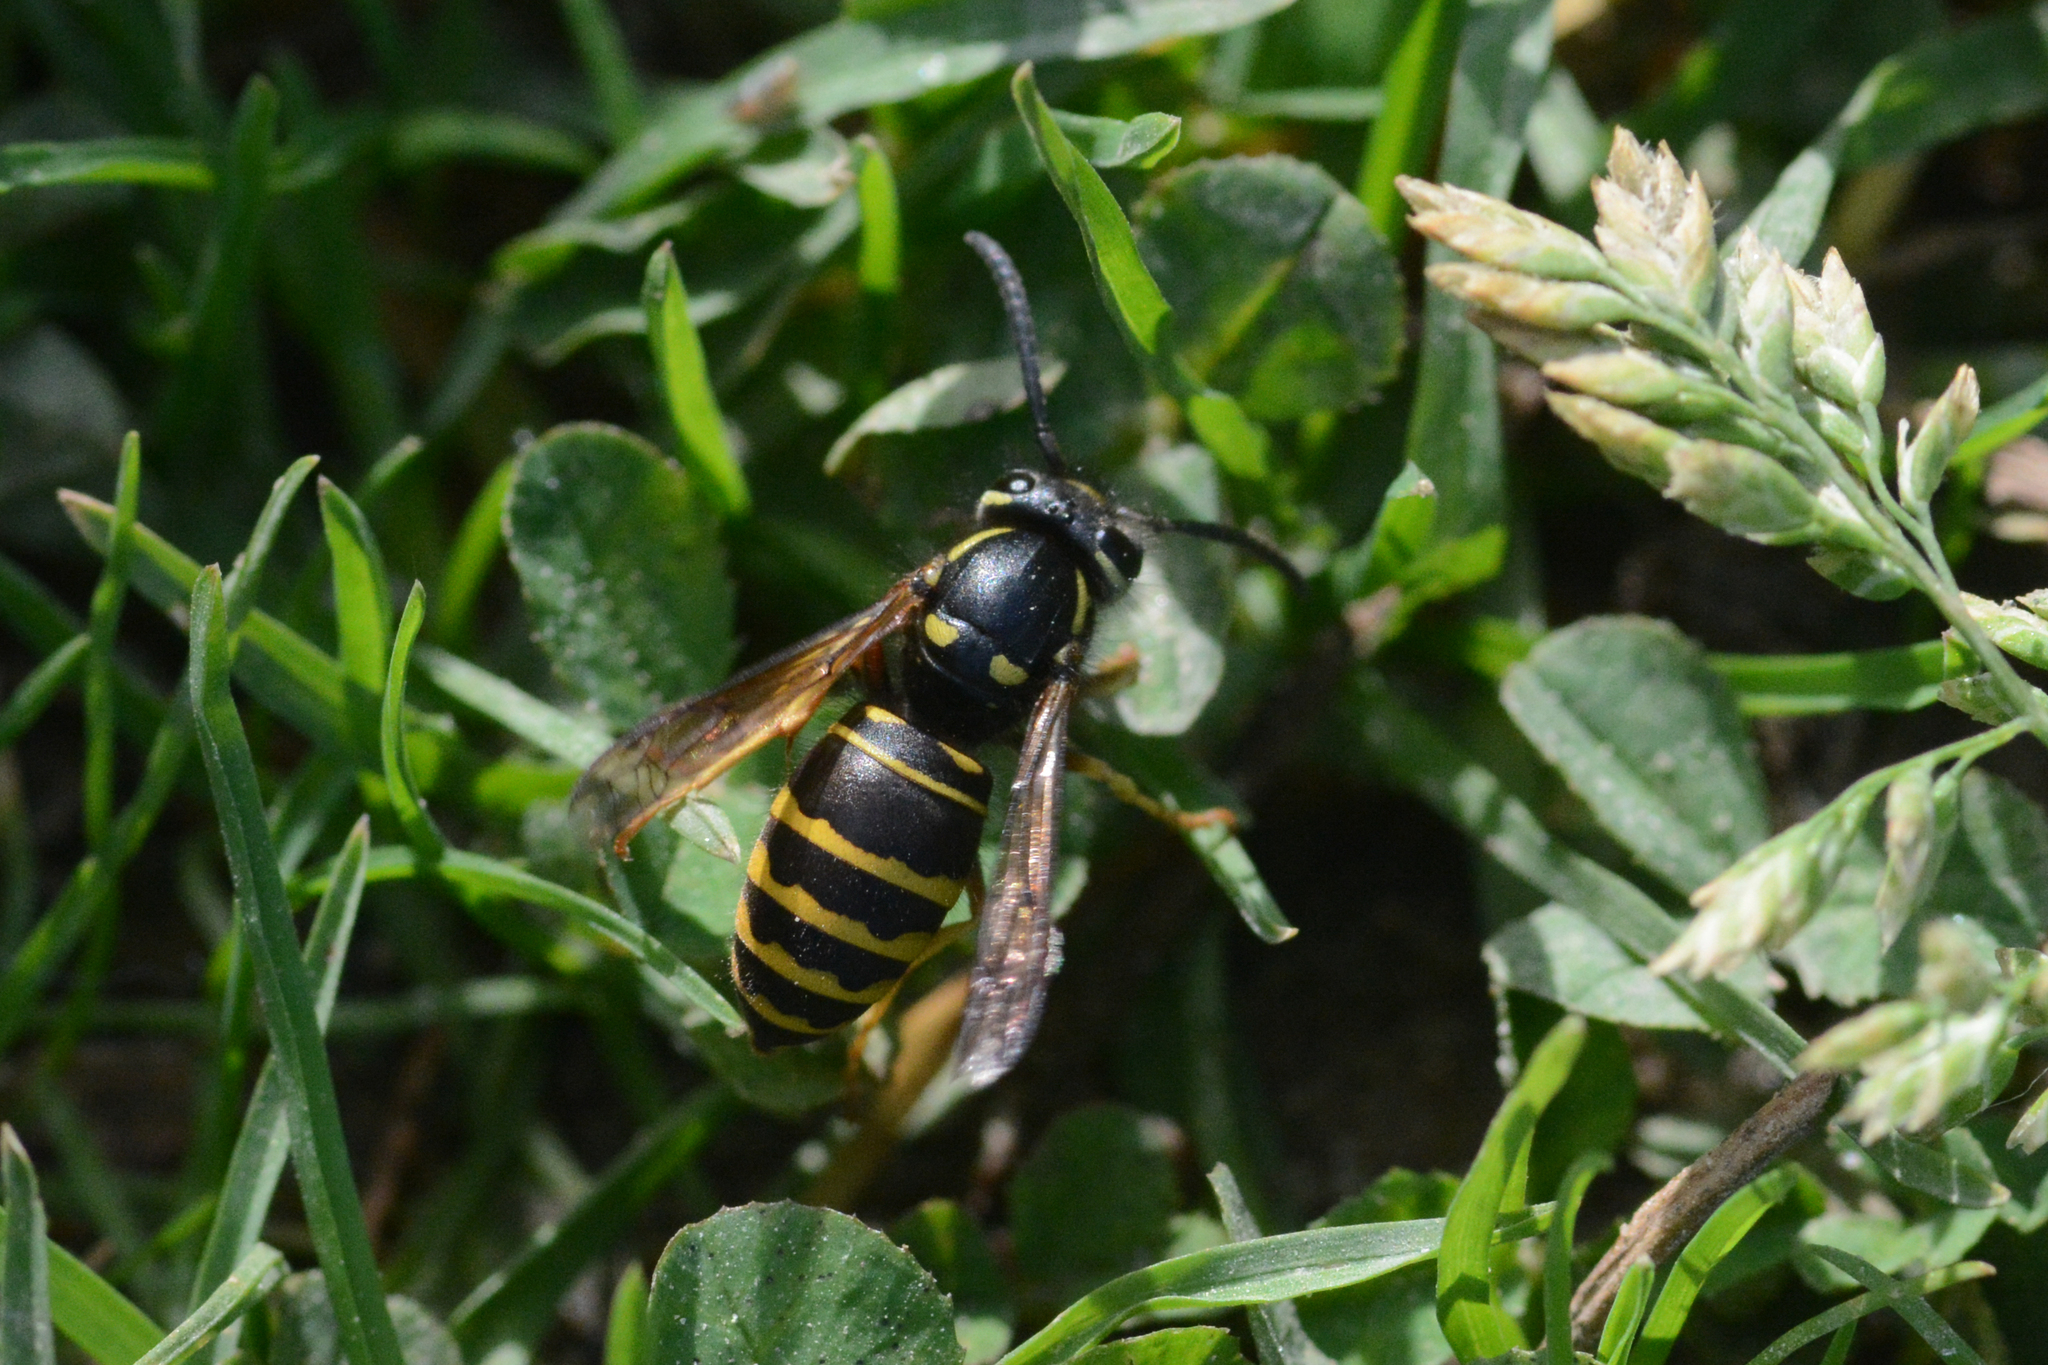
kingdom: Animalia
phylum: Arthropoda
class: Insecta
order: Hymenoptera
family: Vespidae
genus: Vespula
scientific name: Vespula acadica
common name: Forest yellowjacket
